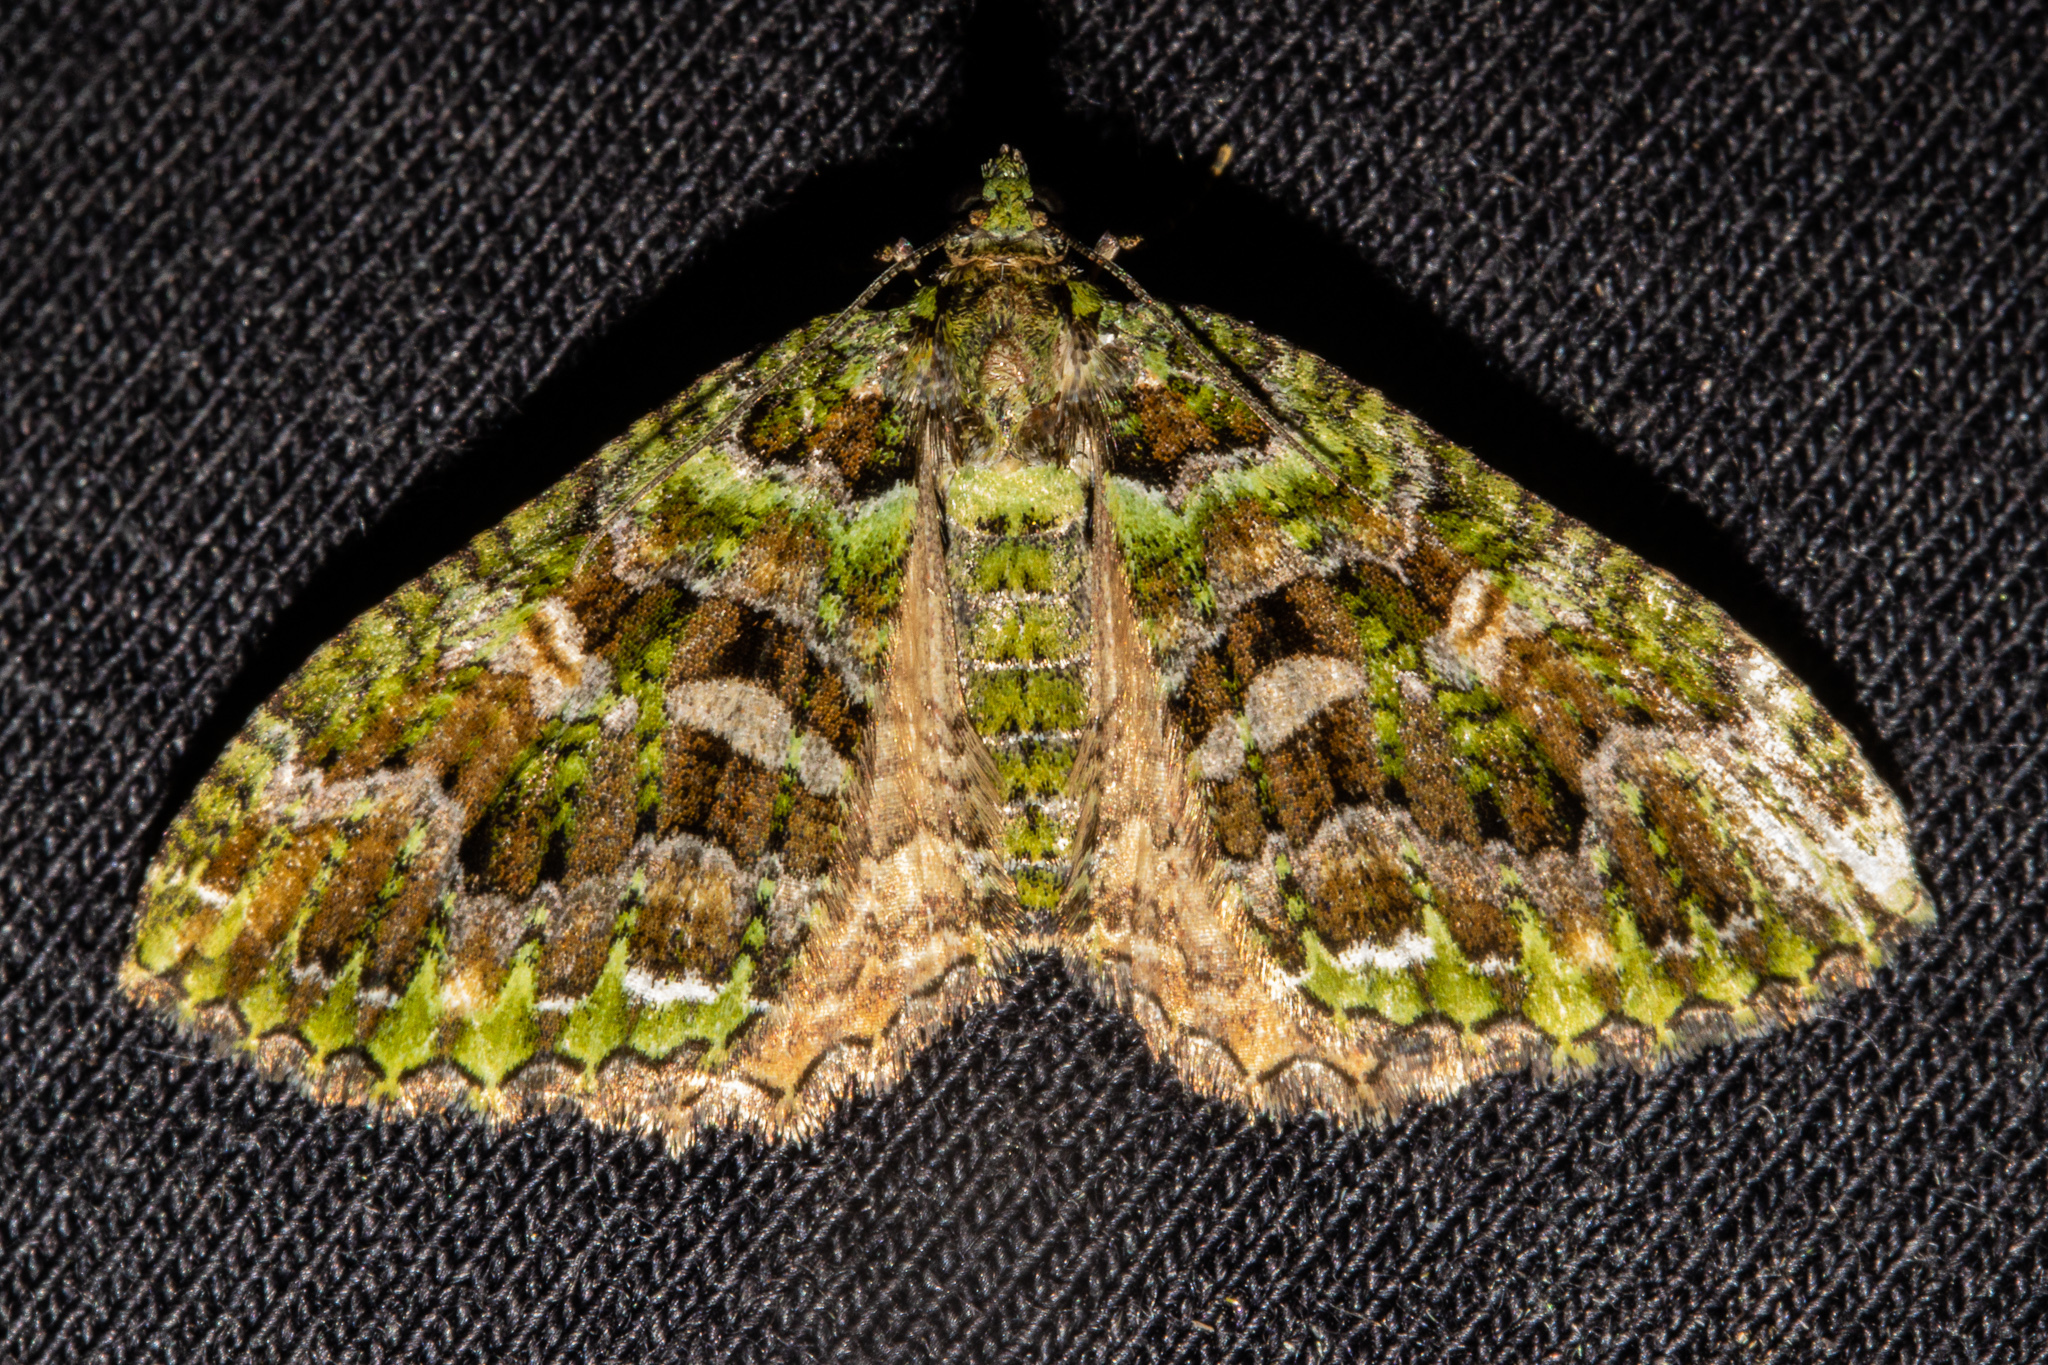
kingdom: Animalia
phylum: Arthropoda
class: Insecta
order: Lepidoptera
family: Geometridae
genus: Austrocidaria
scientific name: Austrocidaria similata
